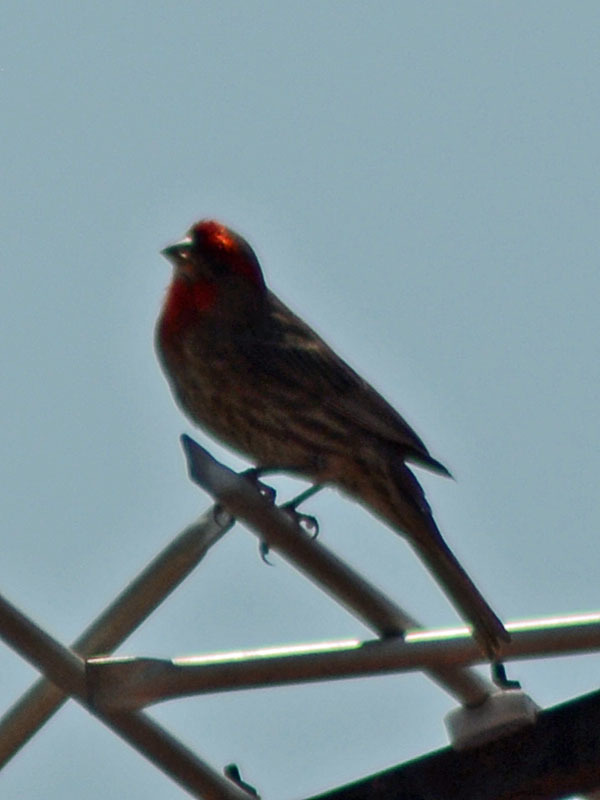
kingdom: Animalia
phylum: Chordata
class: Aves
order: Passeriformes
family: Fringillidae
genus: Haemorhous
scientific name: Haemorhous mexicanus
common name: House finch
